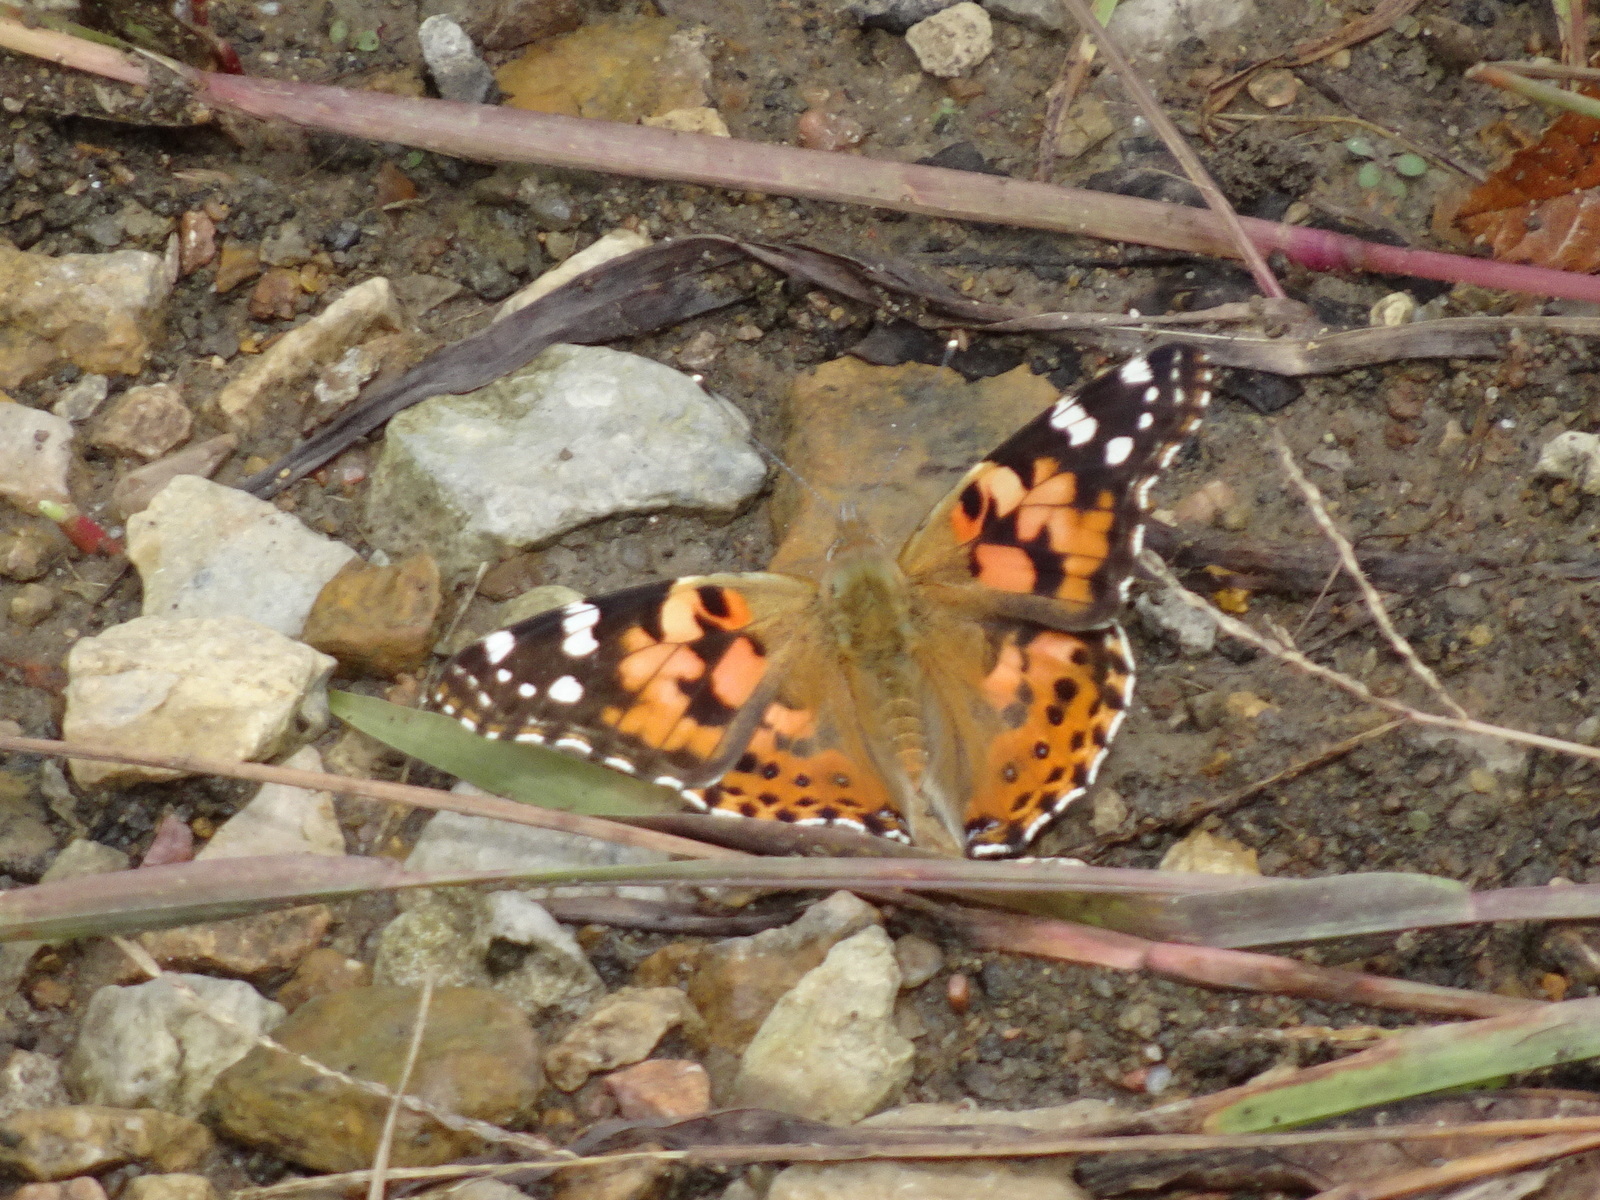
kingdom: Animalia
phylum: Arthropoda
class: Insecta
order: Lepidoptera
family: Nymphalidae
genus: Vanessa
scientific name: Vanessa cardui
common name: Painted lady
